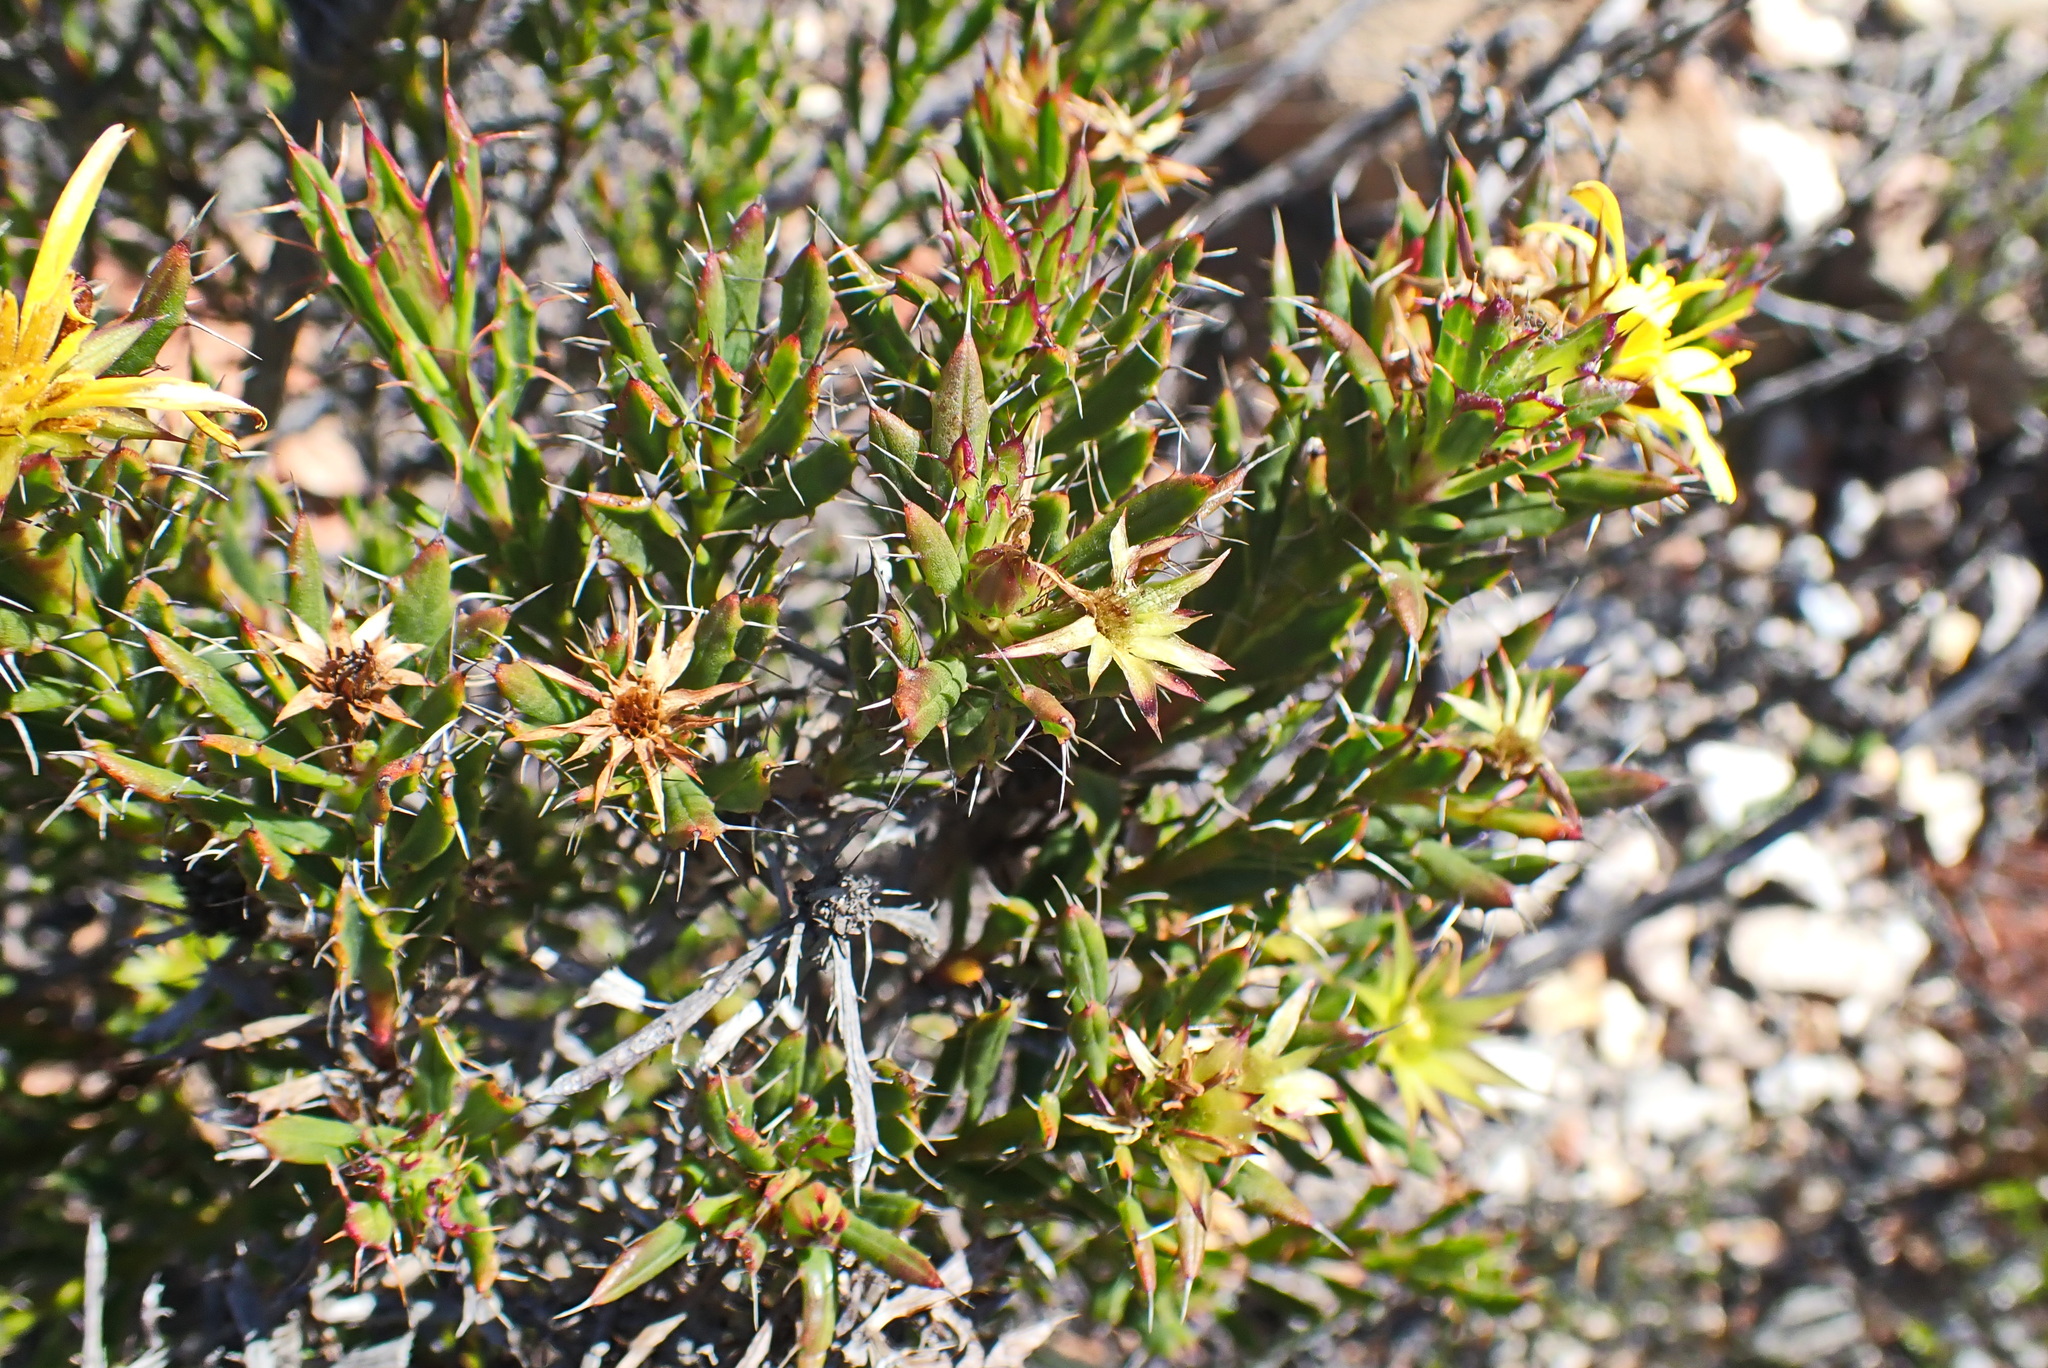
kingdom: Plantae
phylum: Tracheophyta
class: Magnoliopsida
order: Asterales
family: Asteraceae
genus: Cullumia
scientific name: Cullumia bisulca
